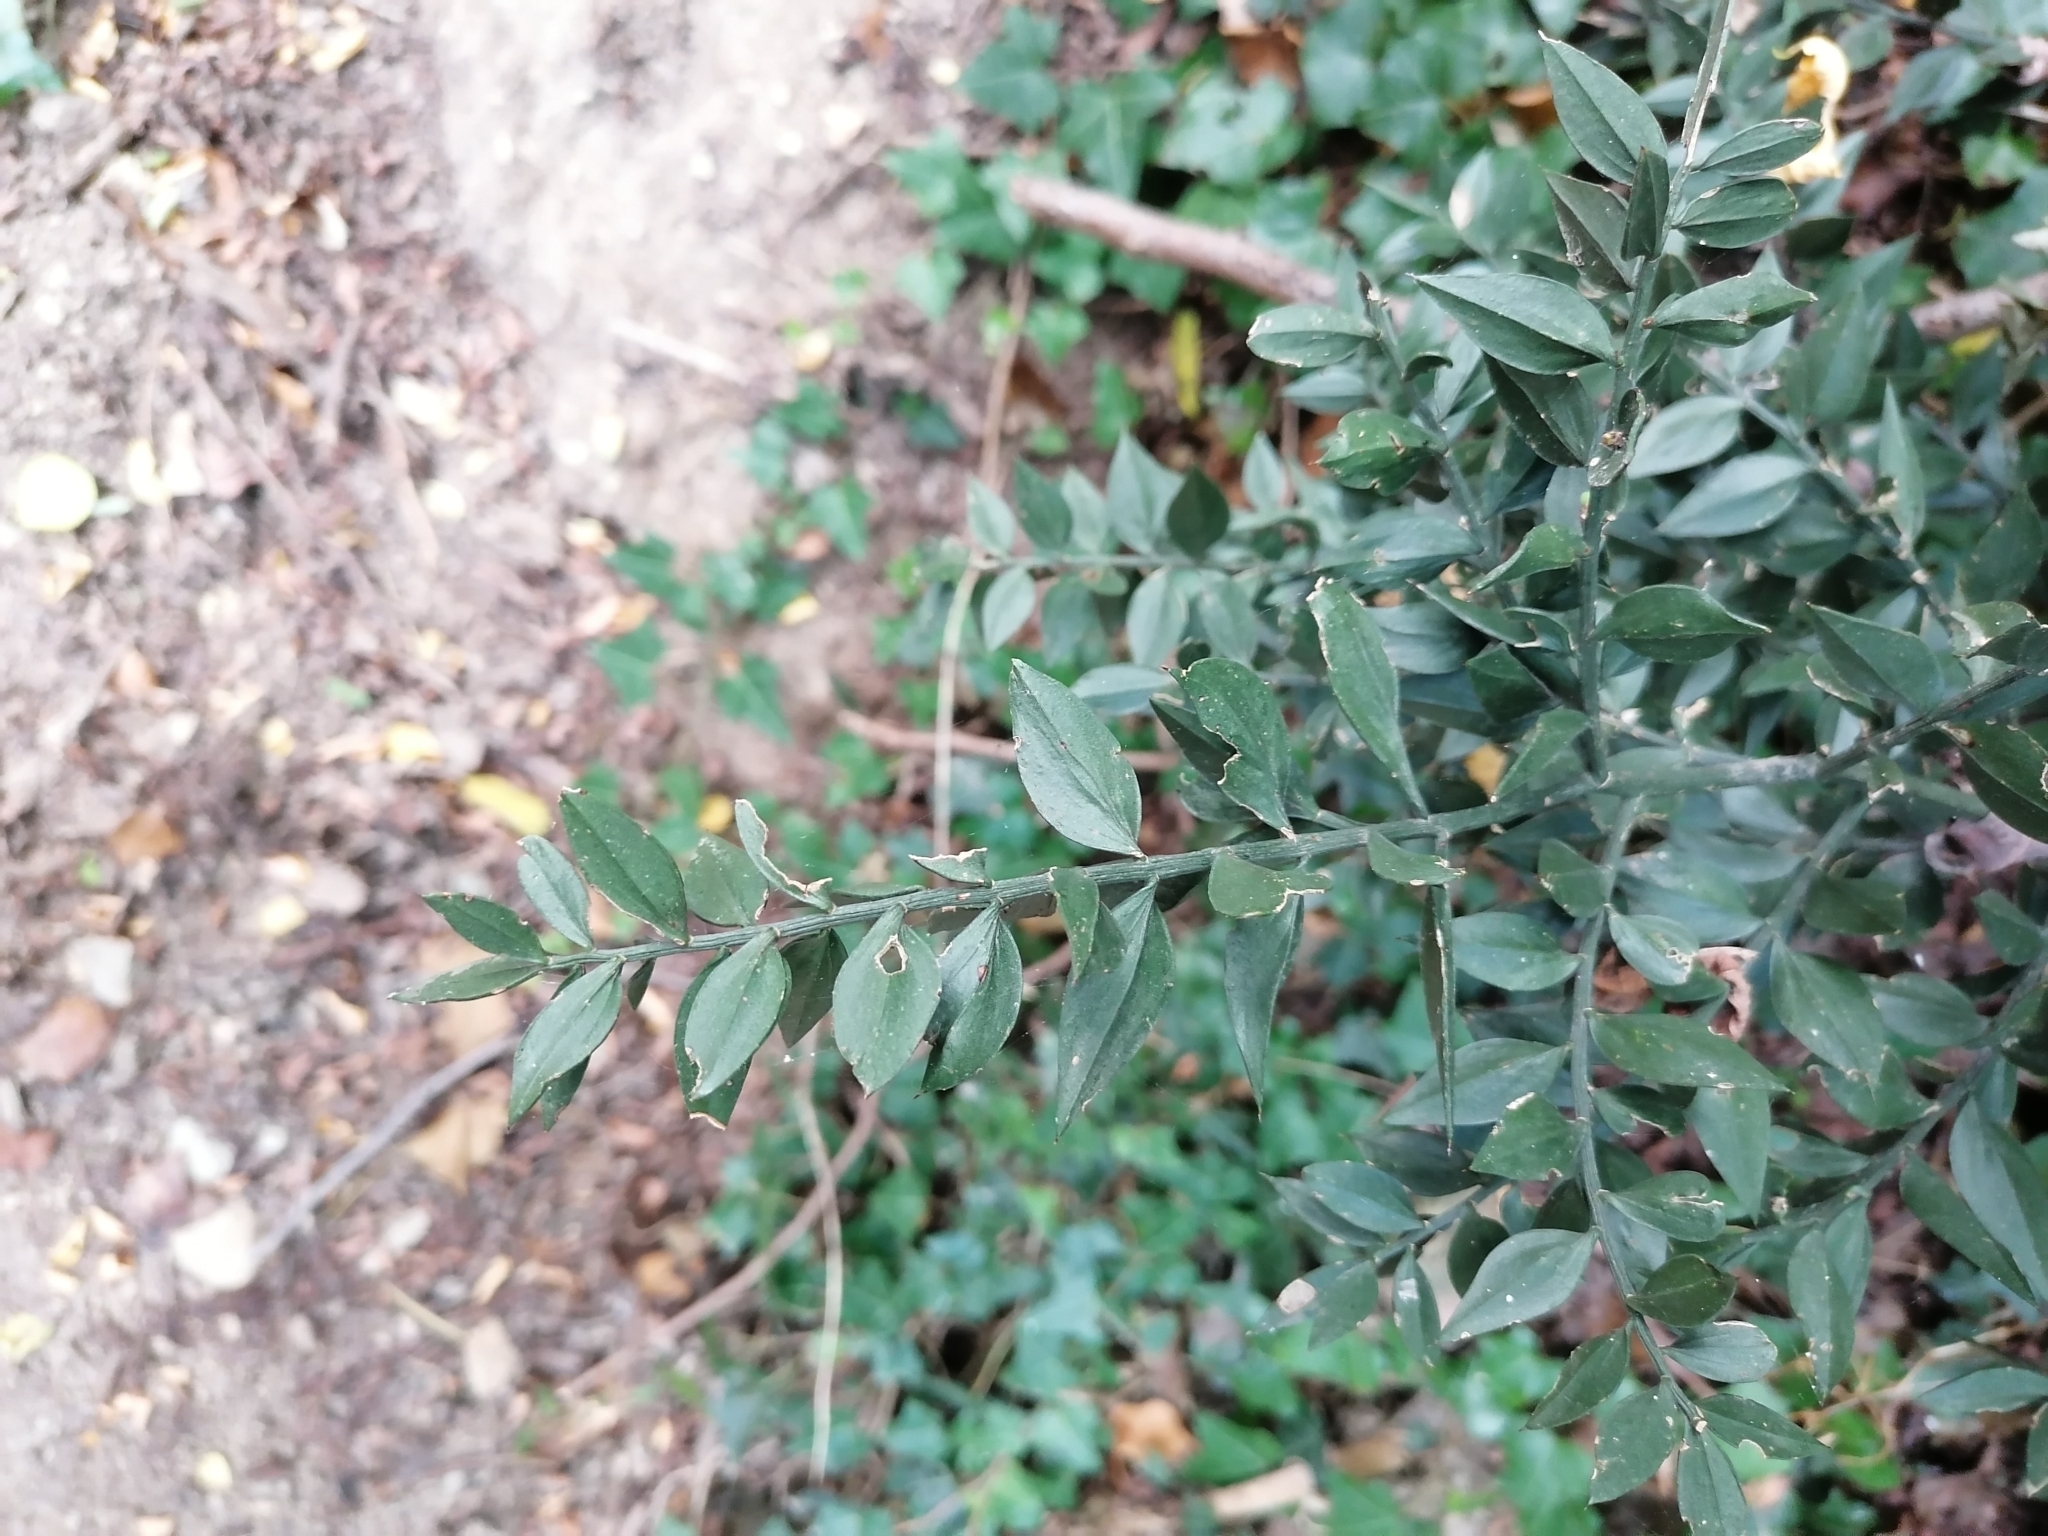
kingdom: Plantae
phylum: Tracheophyta
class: Liliopsida
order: Asparagales
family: Asparagaceae
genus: Ruscus
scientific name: Ruscus aculeatus
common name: Butcher's-broom
